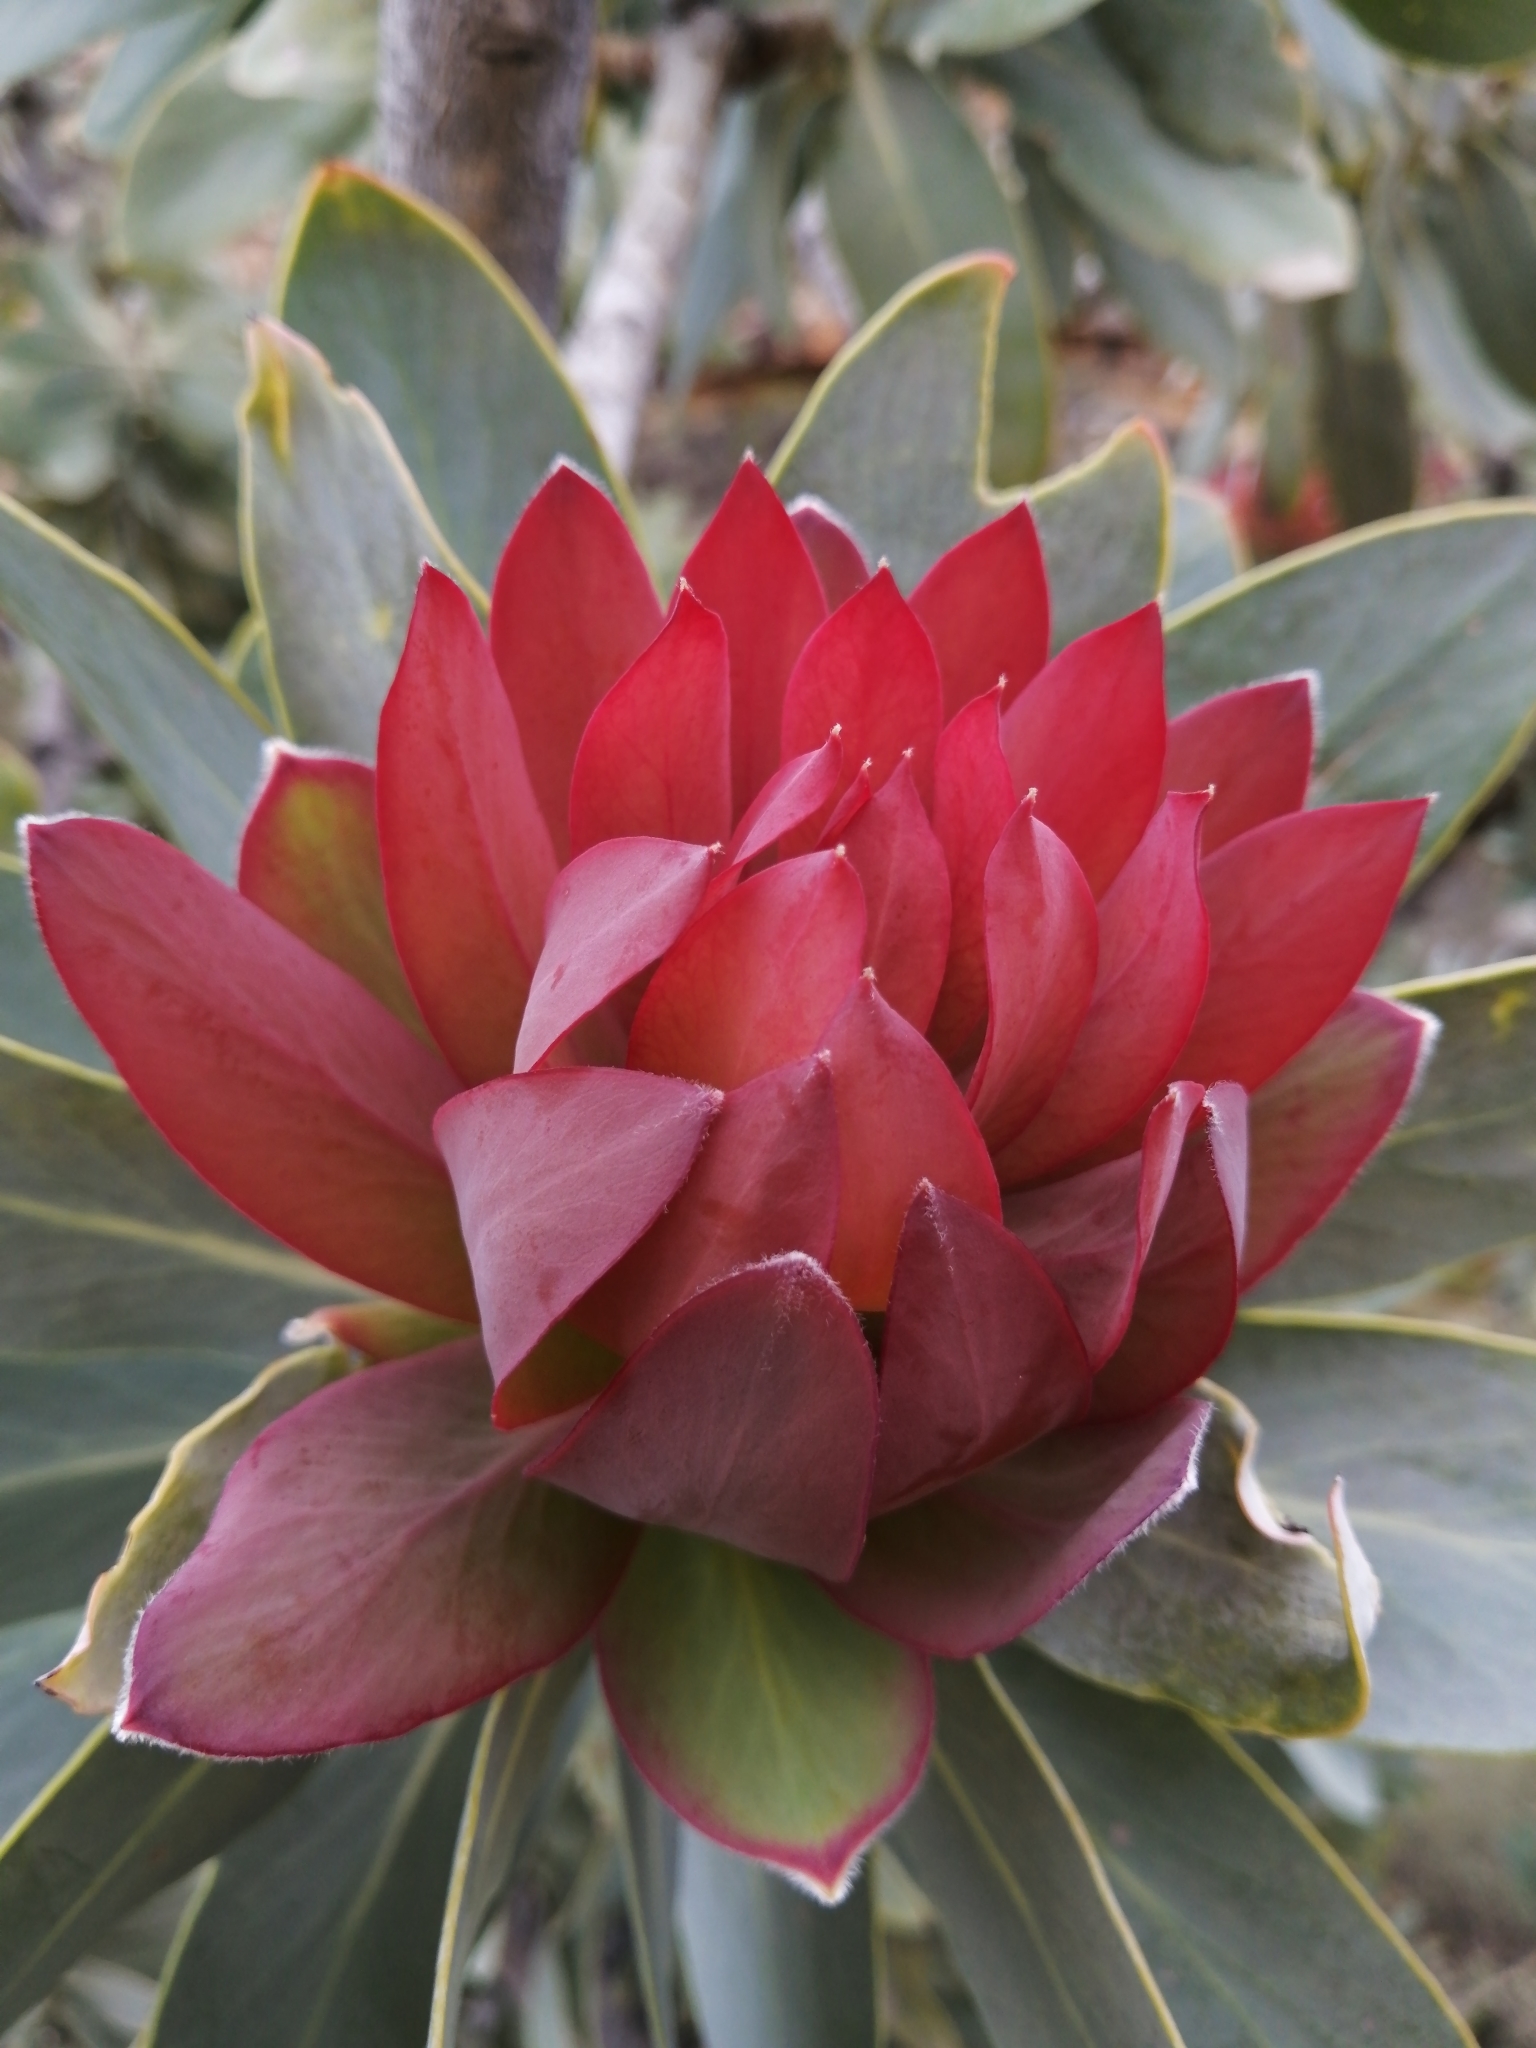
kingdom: Plantae
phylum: Tracheophyta
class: Magnoliopsida
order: Proteales
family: Proteaceae
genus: Protea
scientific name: Protea nitida
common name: Tree protea
